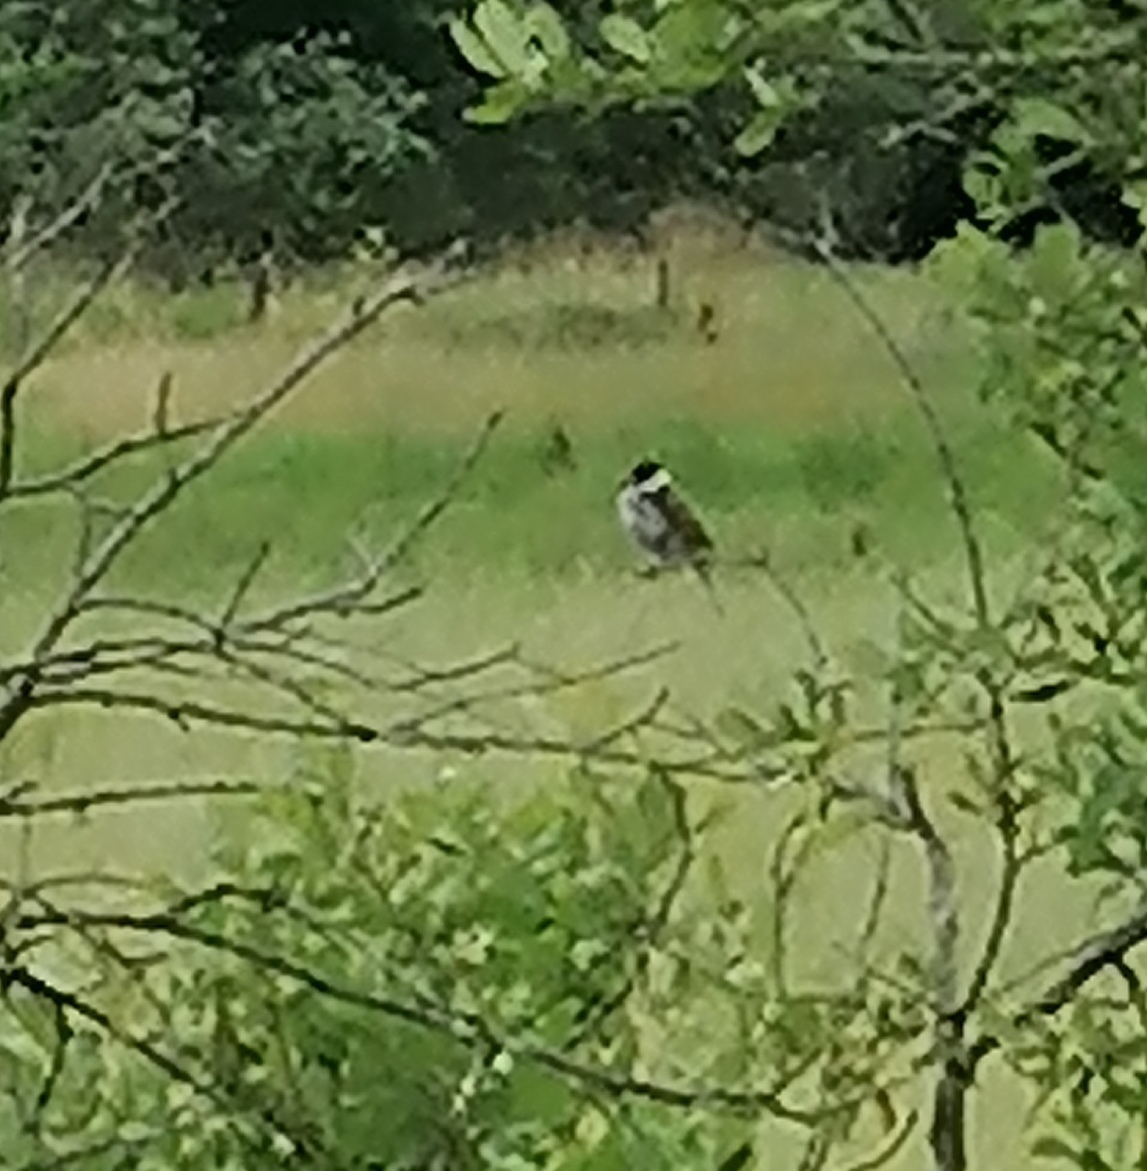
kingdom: Animalia
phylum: Chordata
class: Aves
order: Passeriformes
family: Emberizidae
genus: Emberiza
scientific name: Emberiza schoeniclus
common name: Reed bunting
